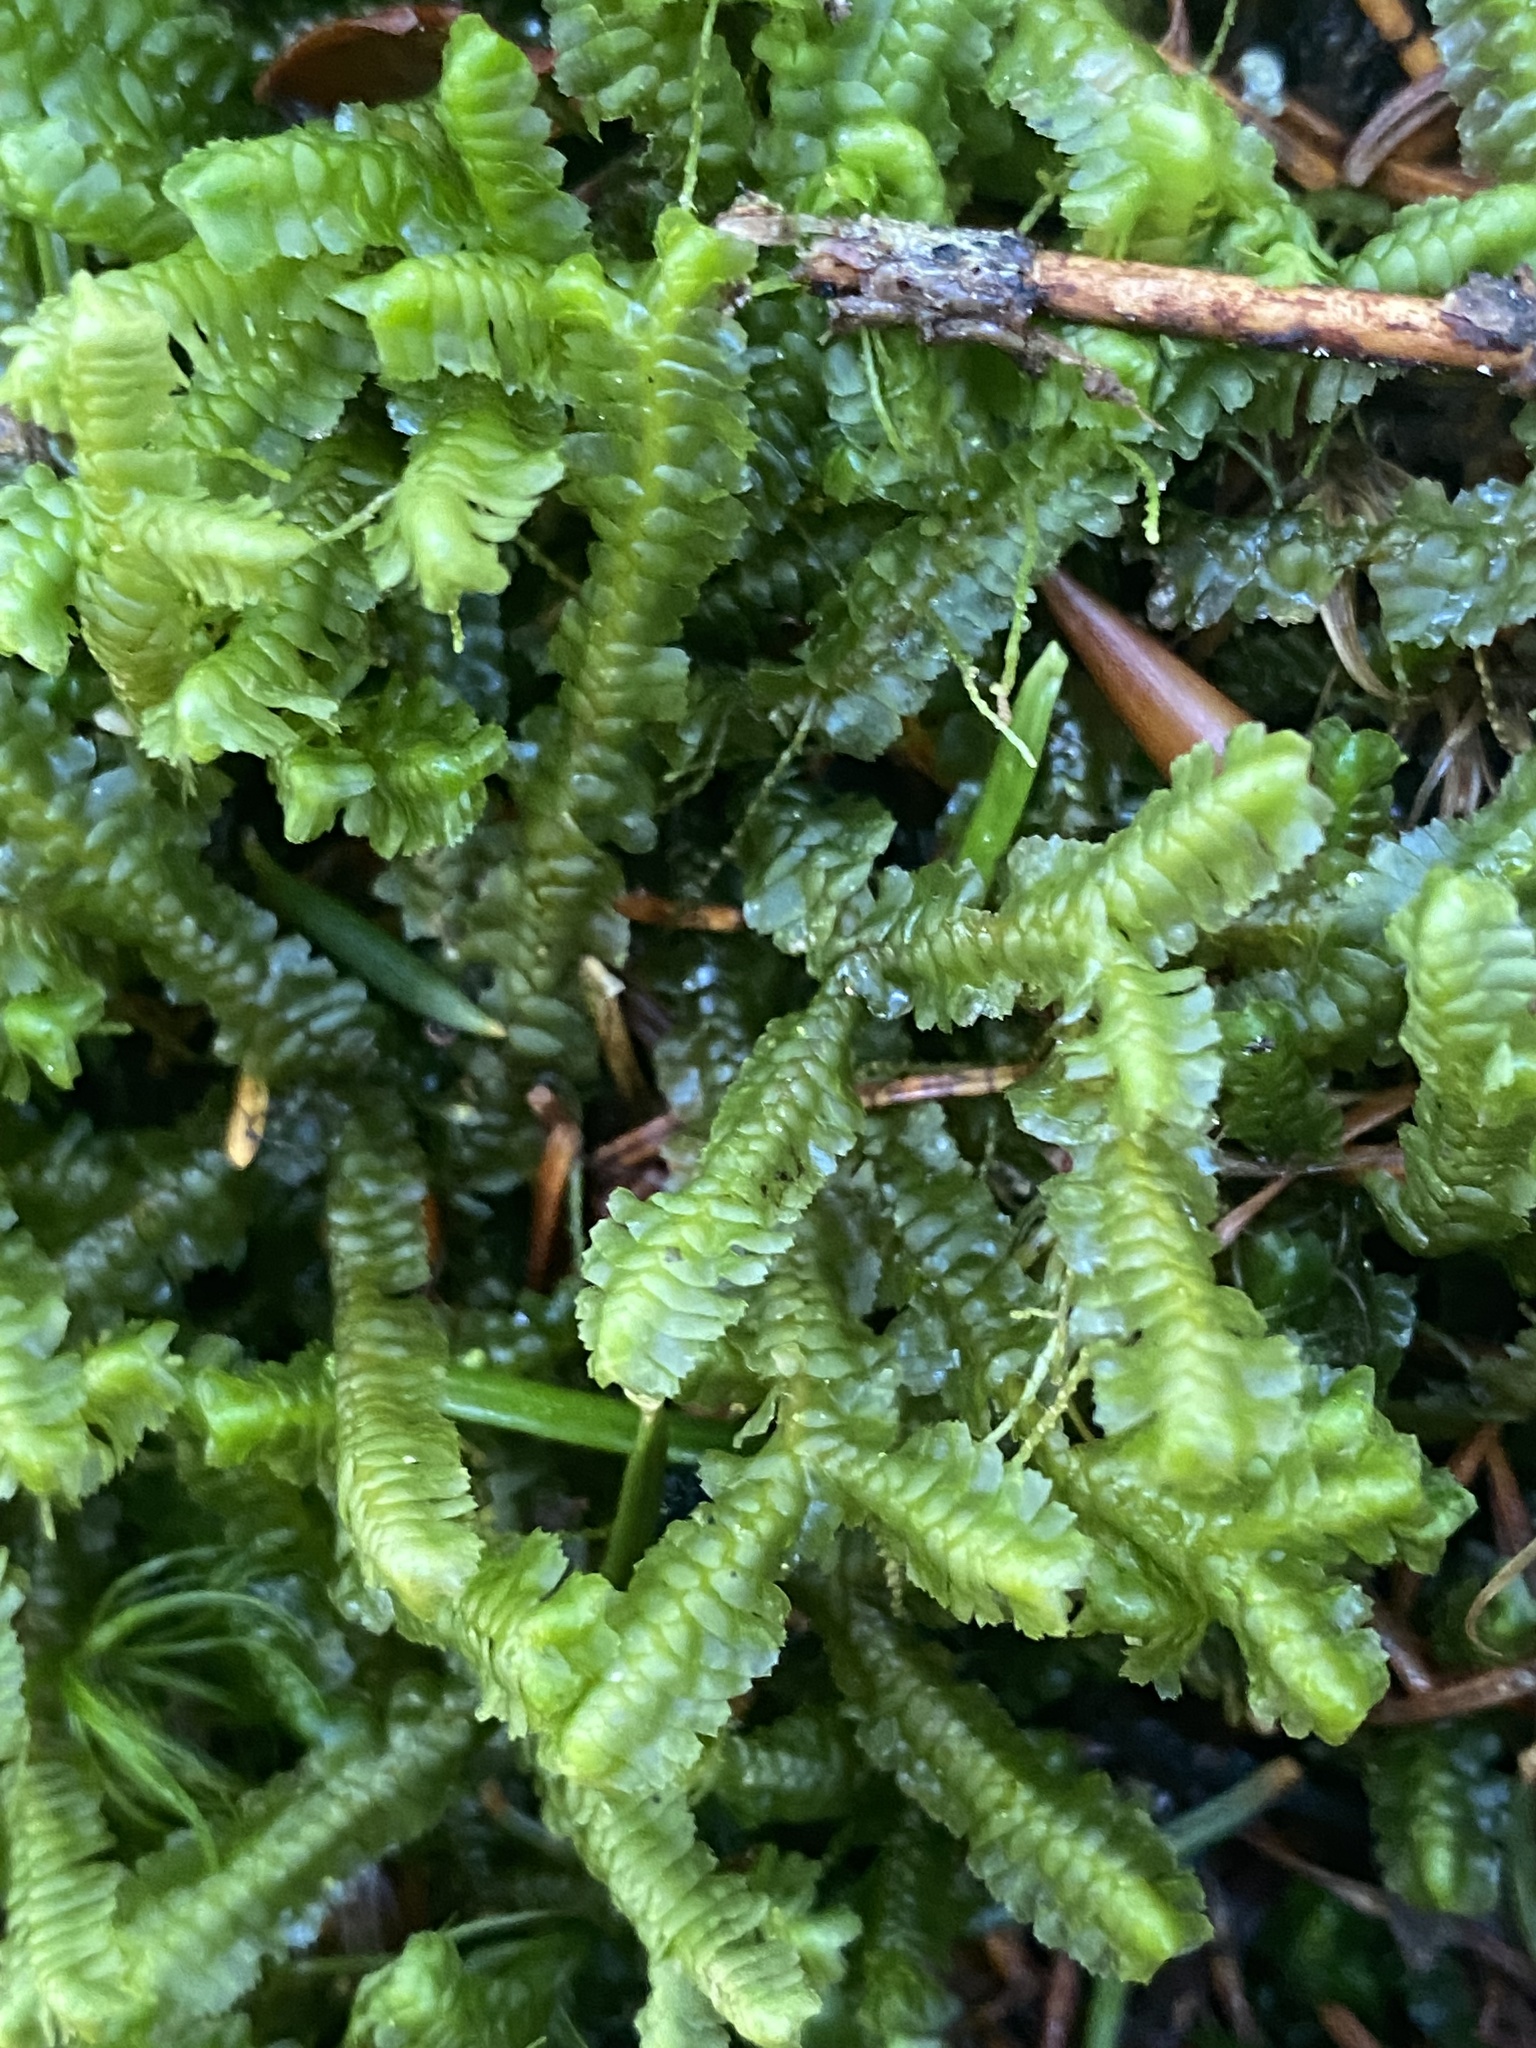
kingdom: Plantae
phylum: Marchantiophyta
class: Jungermanniopsida
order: Jungermanniales
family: Lepidoziaceae
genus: Bazzania
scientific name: Bazzania trilobata
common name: Three-lobed whipwort
